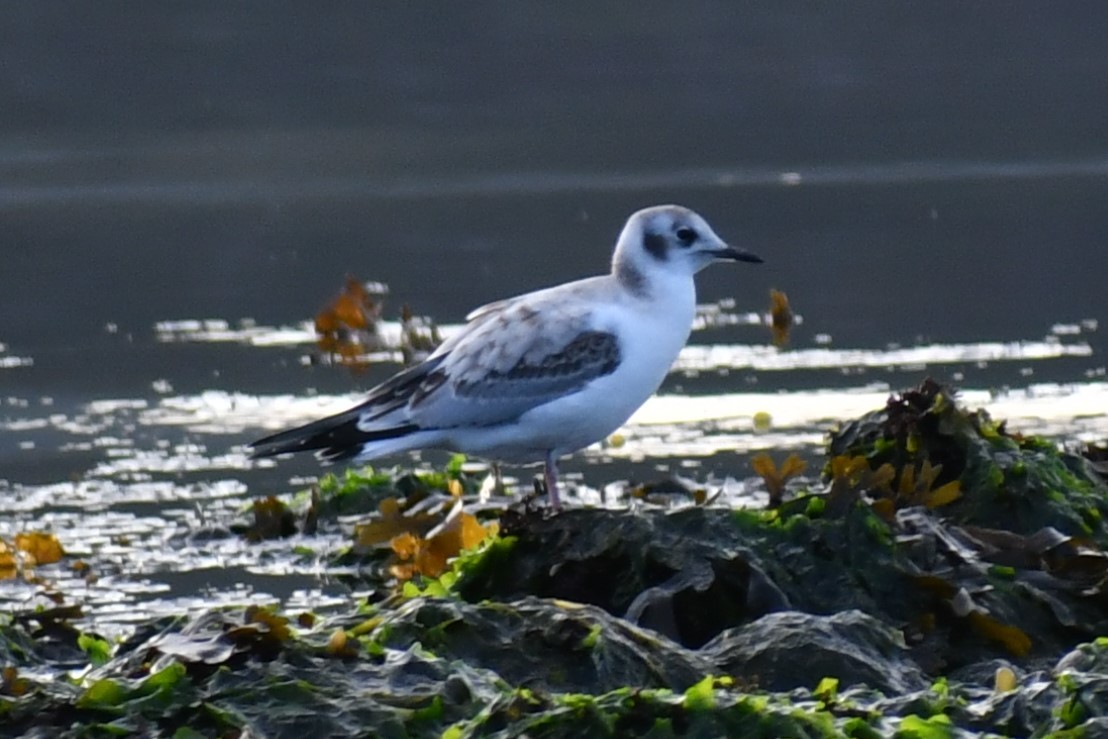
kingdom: Animalia
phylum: Chordata
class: Aves
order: Charadriiformes
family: Laridae
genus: Chroicocephalus
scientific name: Chroicocephalus philadelphia
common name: Bonaparte's gull
